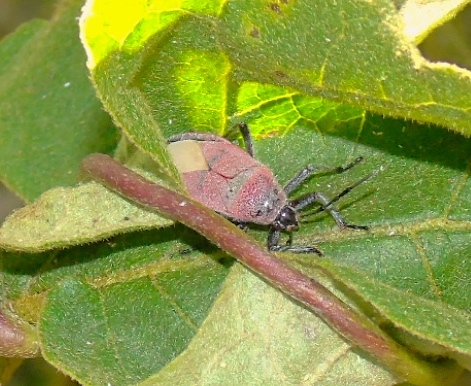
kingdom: Animalia
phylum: Arthropoda
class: Insecta
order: Hemiptera
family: Largidae
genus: Largus
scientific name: Largus
